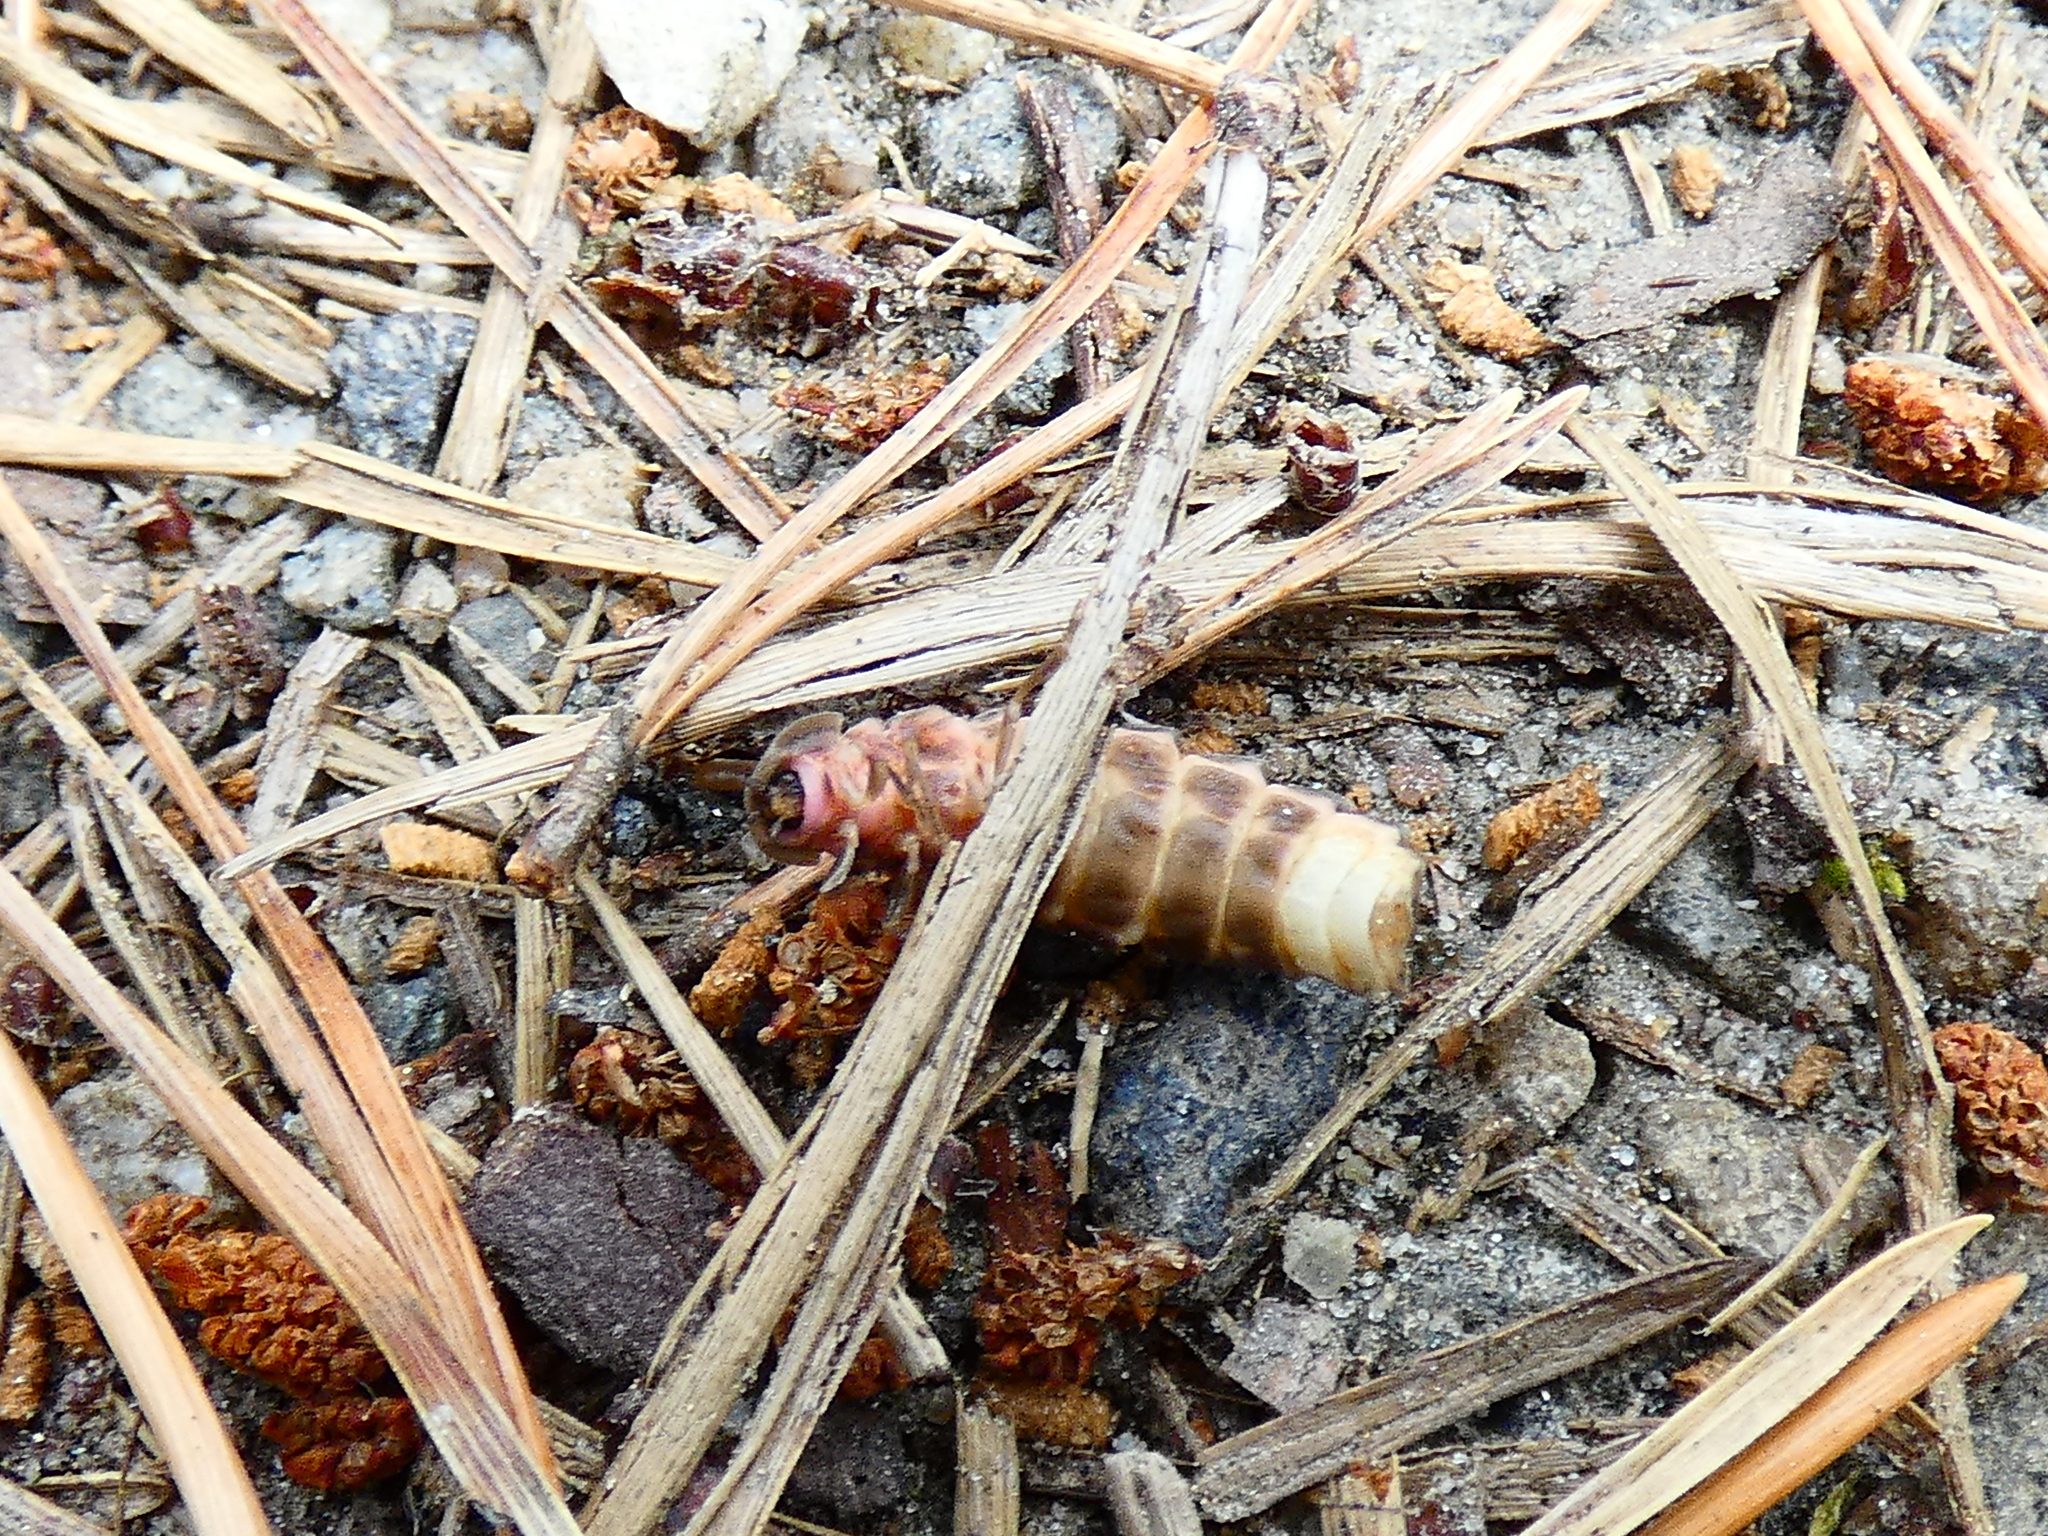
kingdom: Animalia
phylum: Arthropoda
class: Insecta
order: Coleoptera
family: Lampyridae
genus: Lampyris
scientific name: Lampyris noctiluca
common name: Glow-worm
